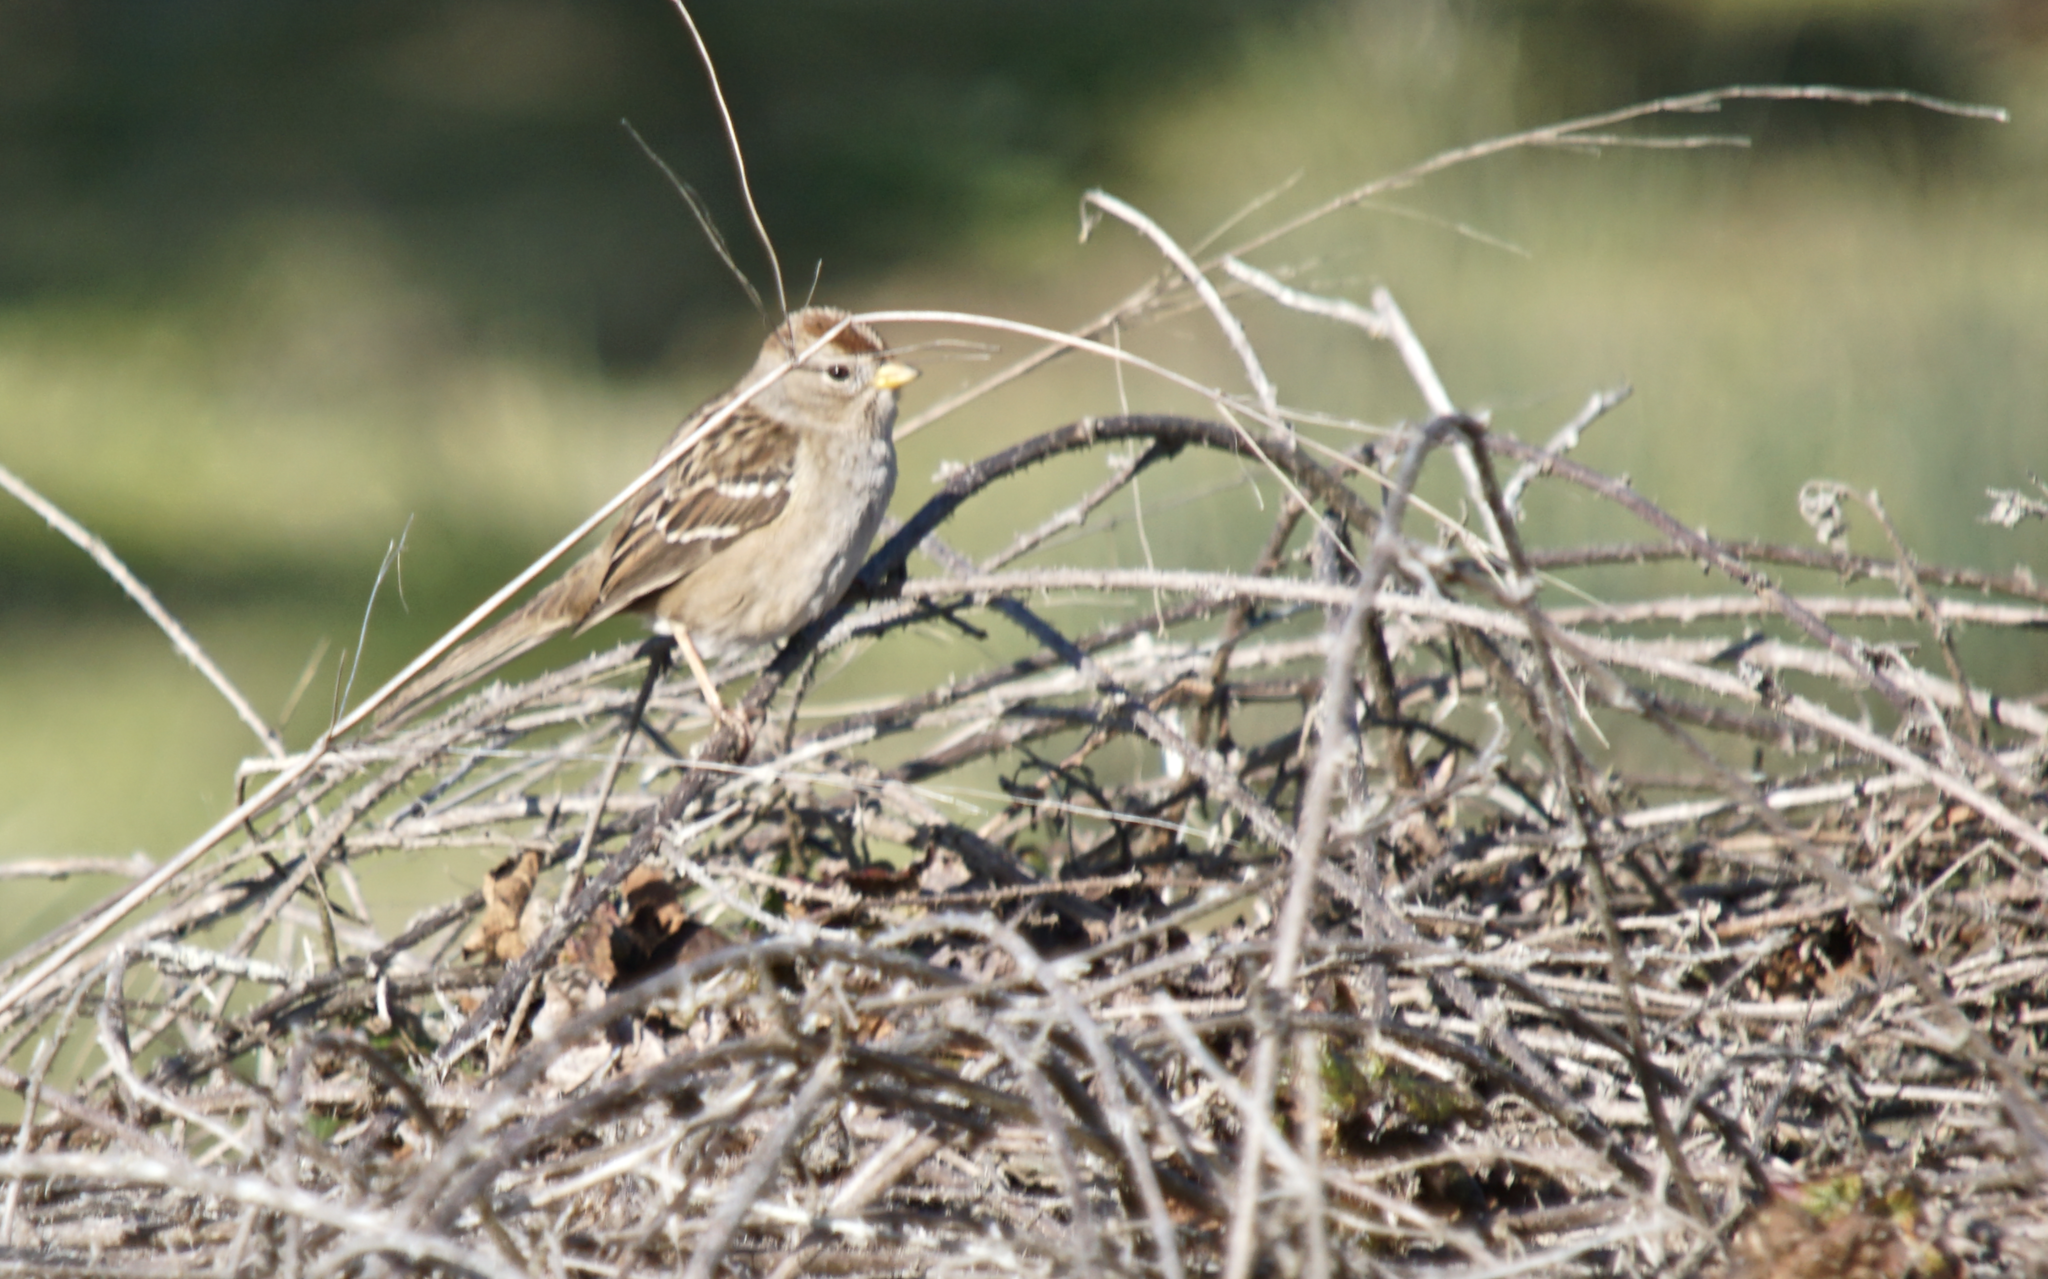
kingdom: Animalia
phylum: Chordata
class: Aves
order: Passeriformes
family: Passerellidae
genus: Zonotrichia
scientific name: Zonotrichia leucophrys
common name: White-crowned sparrow
